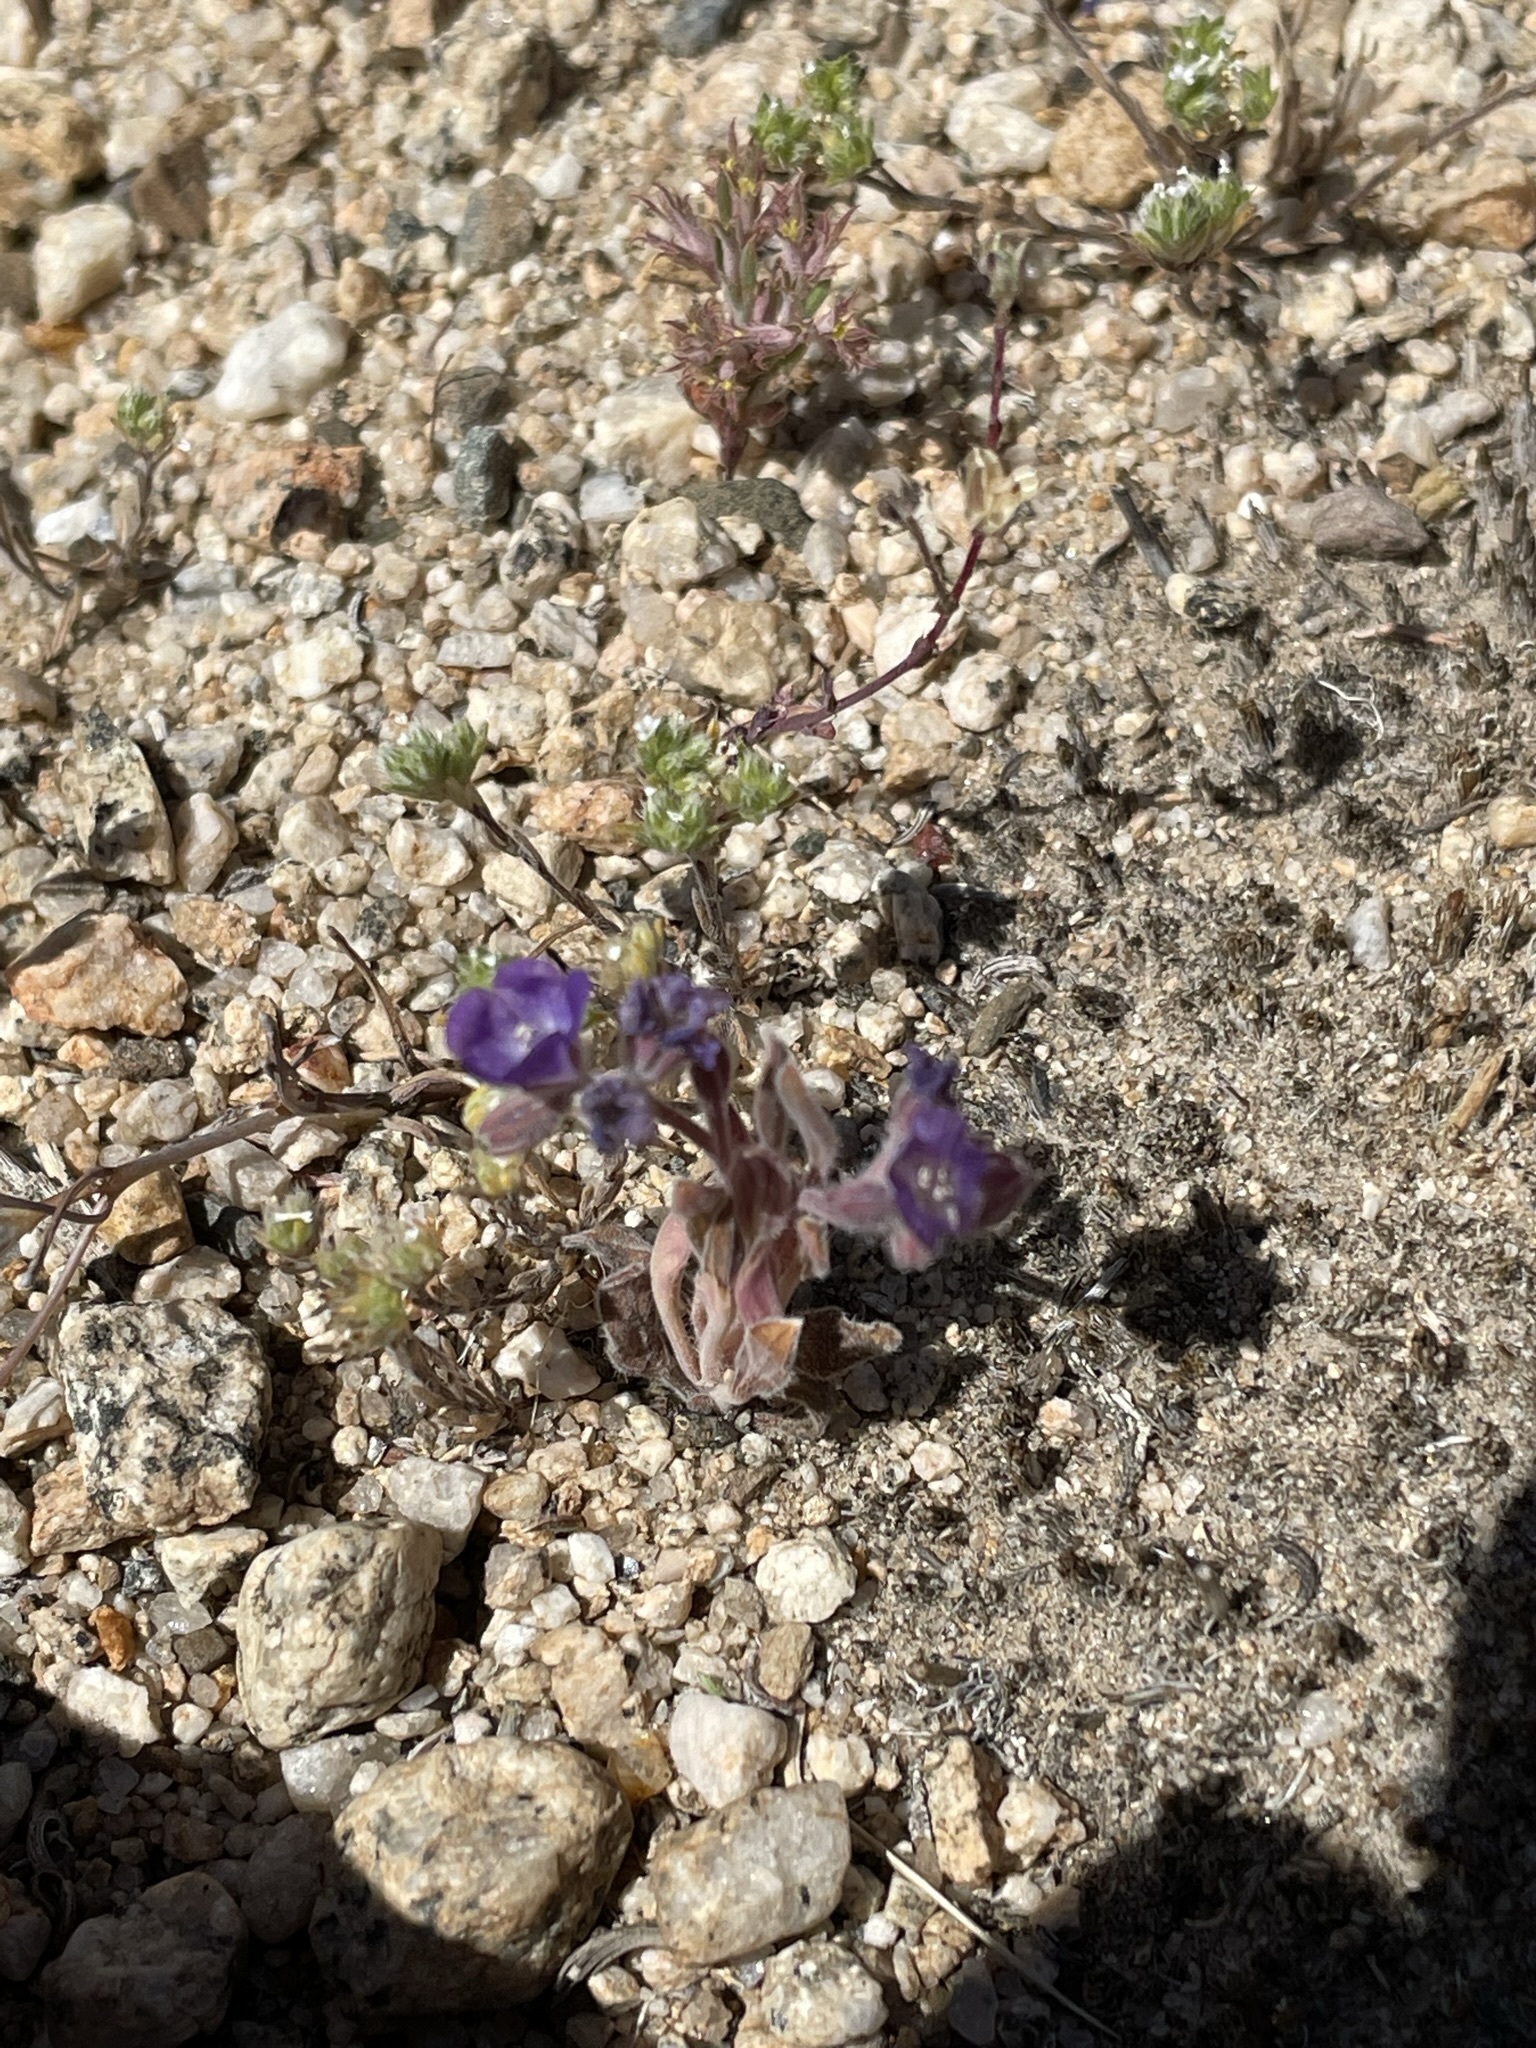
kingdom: Plantae
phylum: Tracheophyta
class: Magnoliopsida
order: Boraginales
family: Hydrophyllaceae
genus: Phacelia
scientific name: Phacelia curvipes
